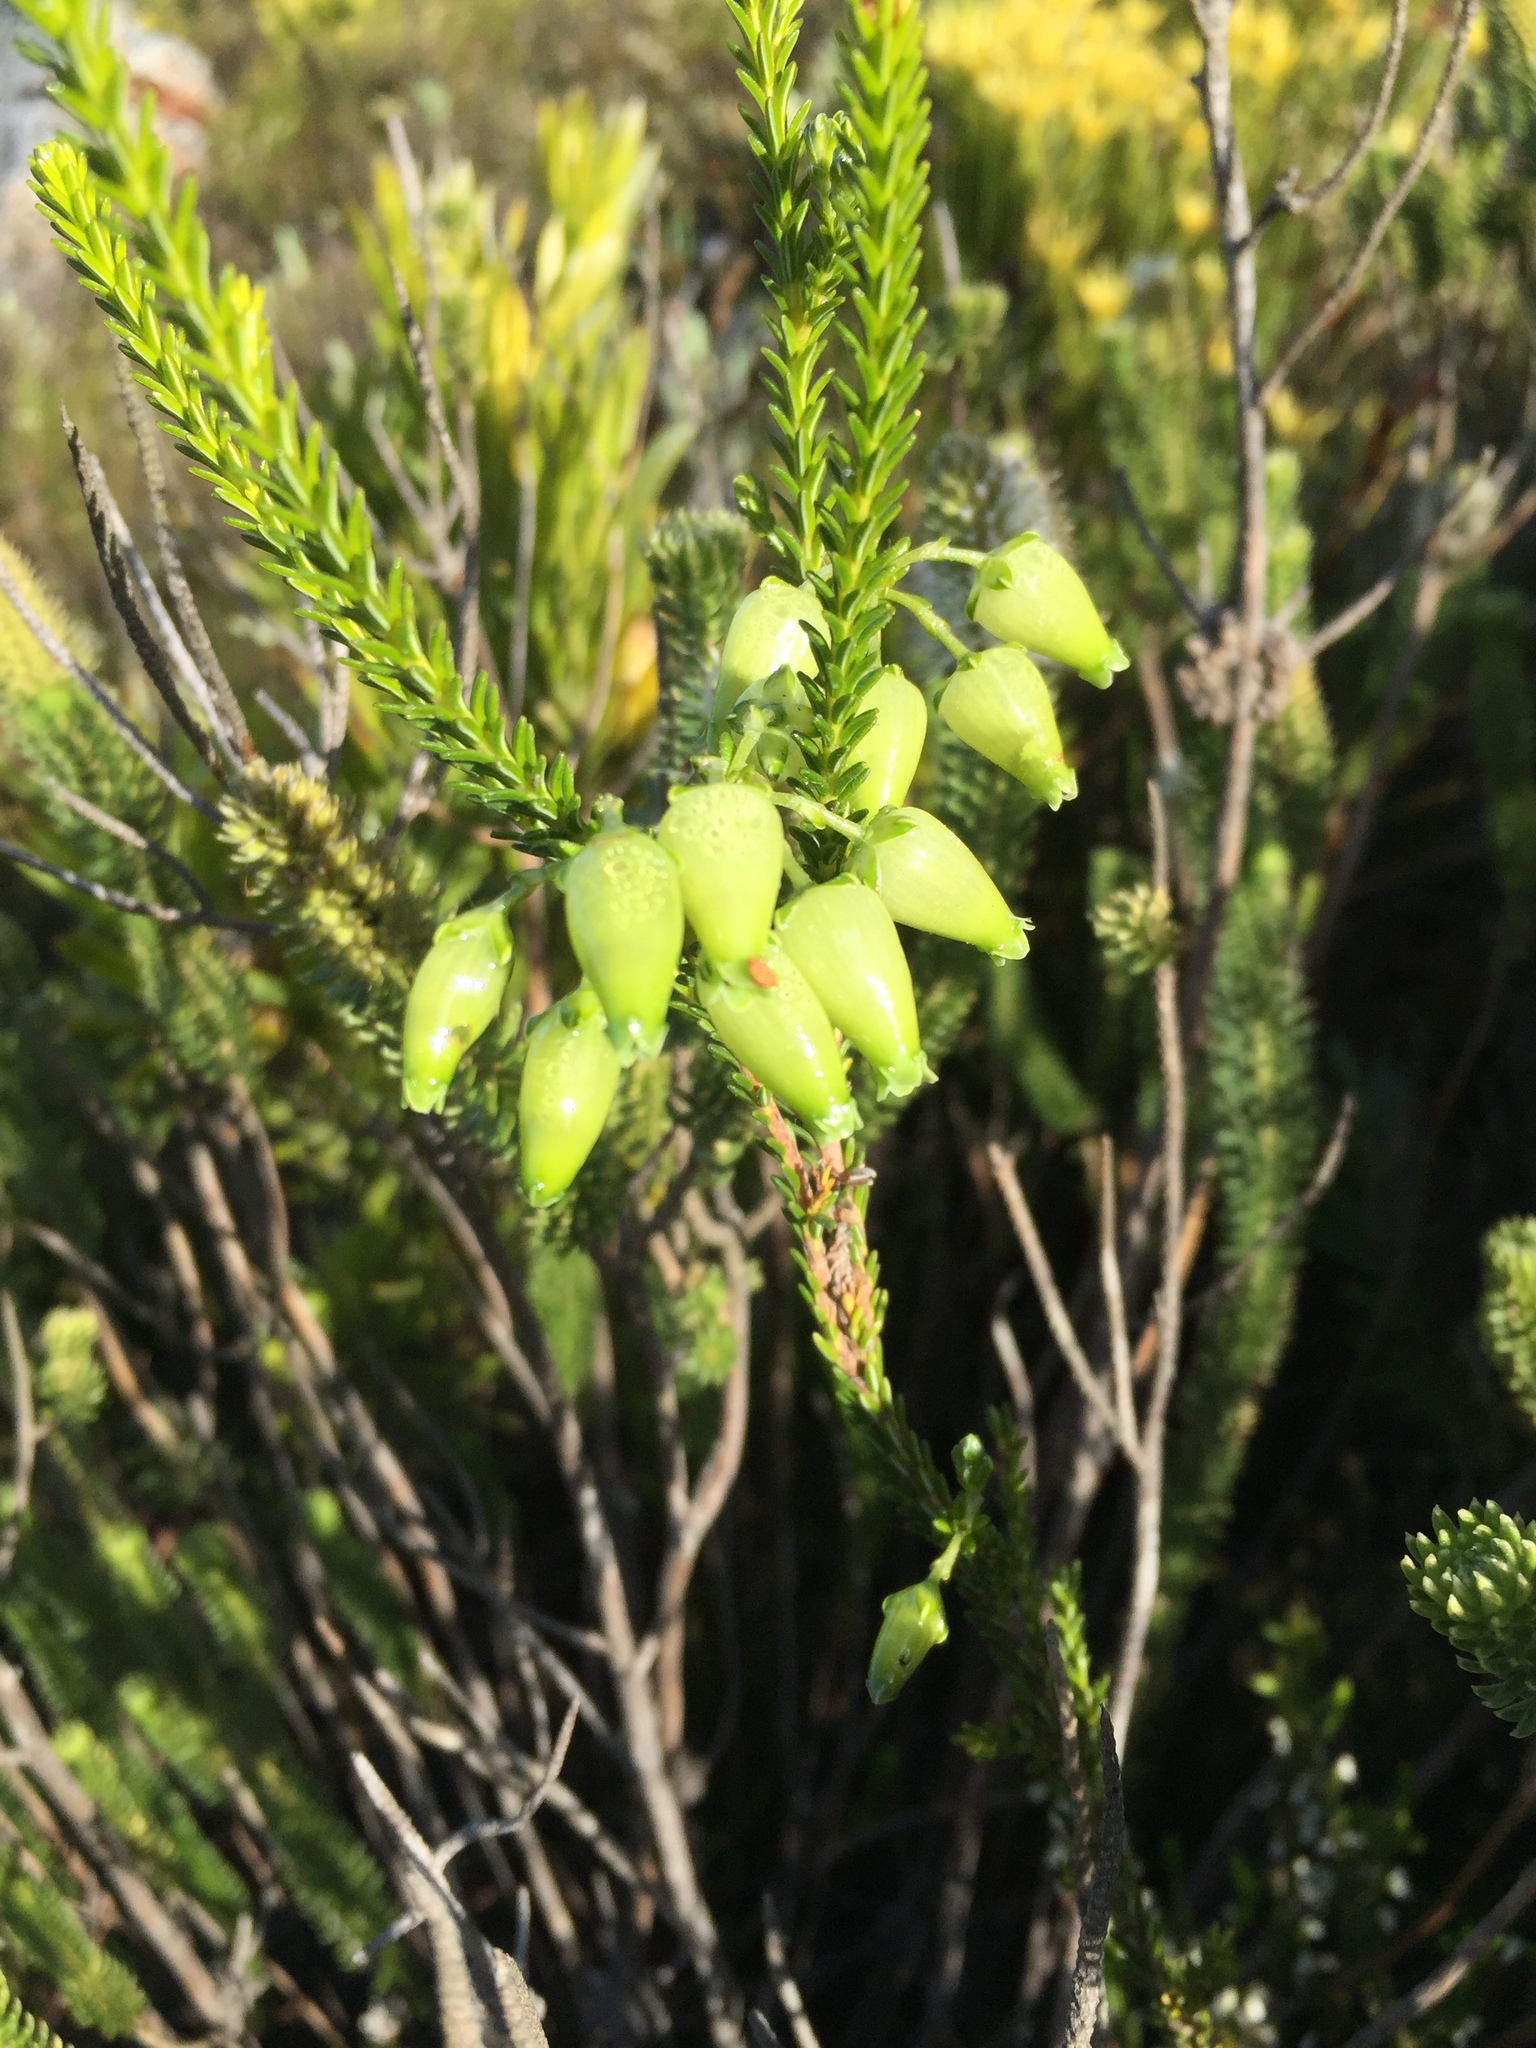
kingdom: Plantae
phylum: Tracheophyta
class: Magnoliopsida
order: Ericales
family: Ericaceae
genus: Erica
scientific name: Erica urna-viridis
